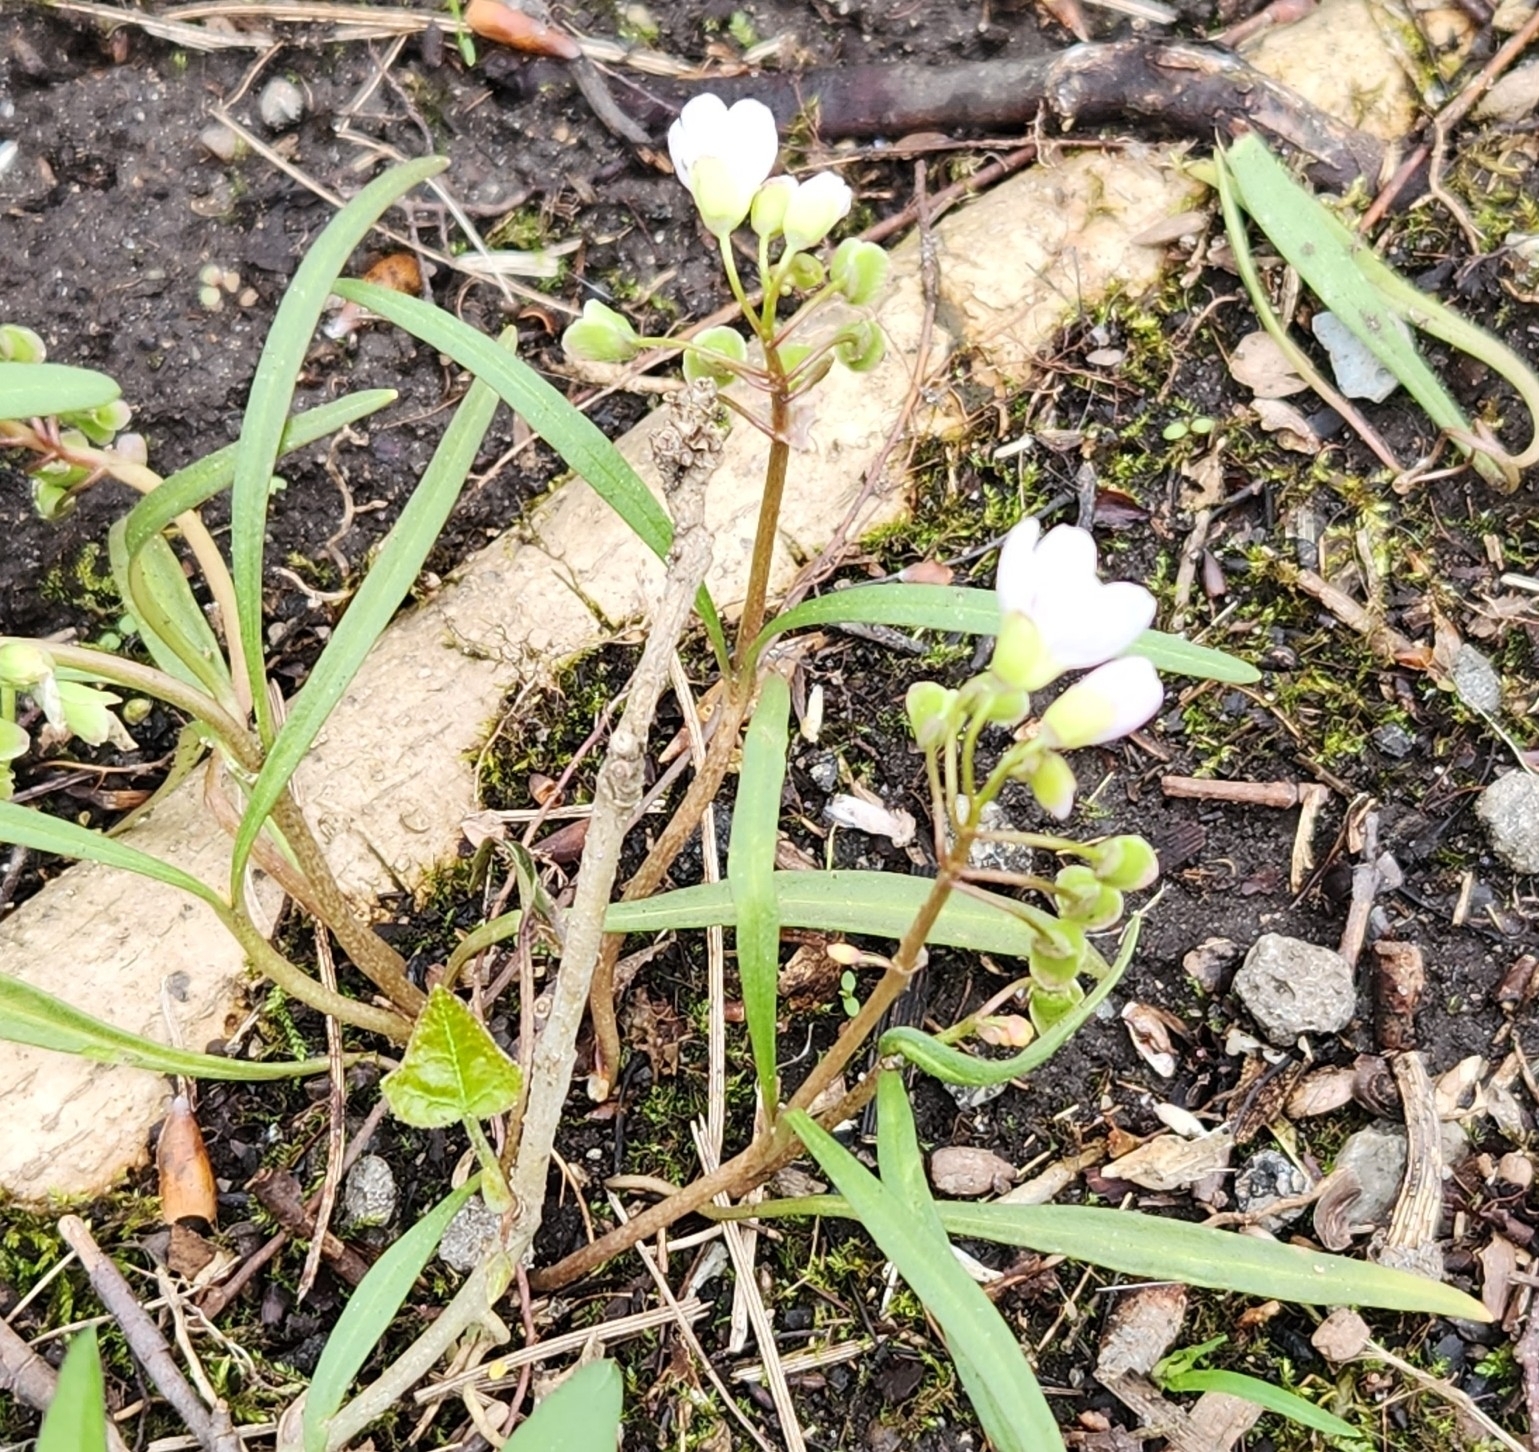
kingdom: Plantae
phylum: Tracheophyta
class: Magnoliopsida
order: Caryophyllales
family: Montiaceae
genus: Claytonia
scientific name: Claytonia virginica
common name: Virginia springbeauty
